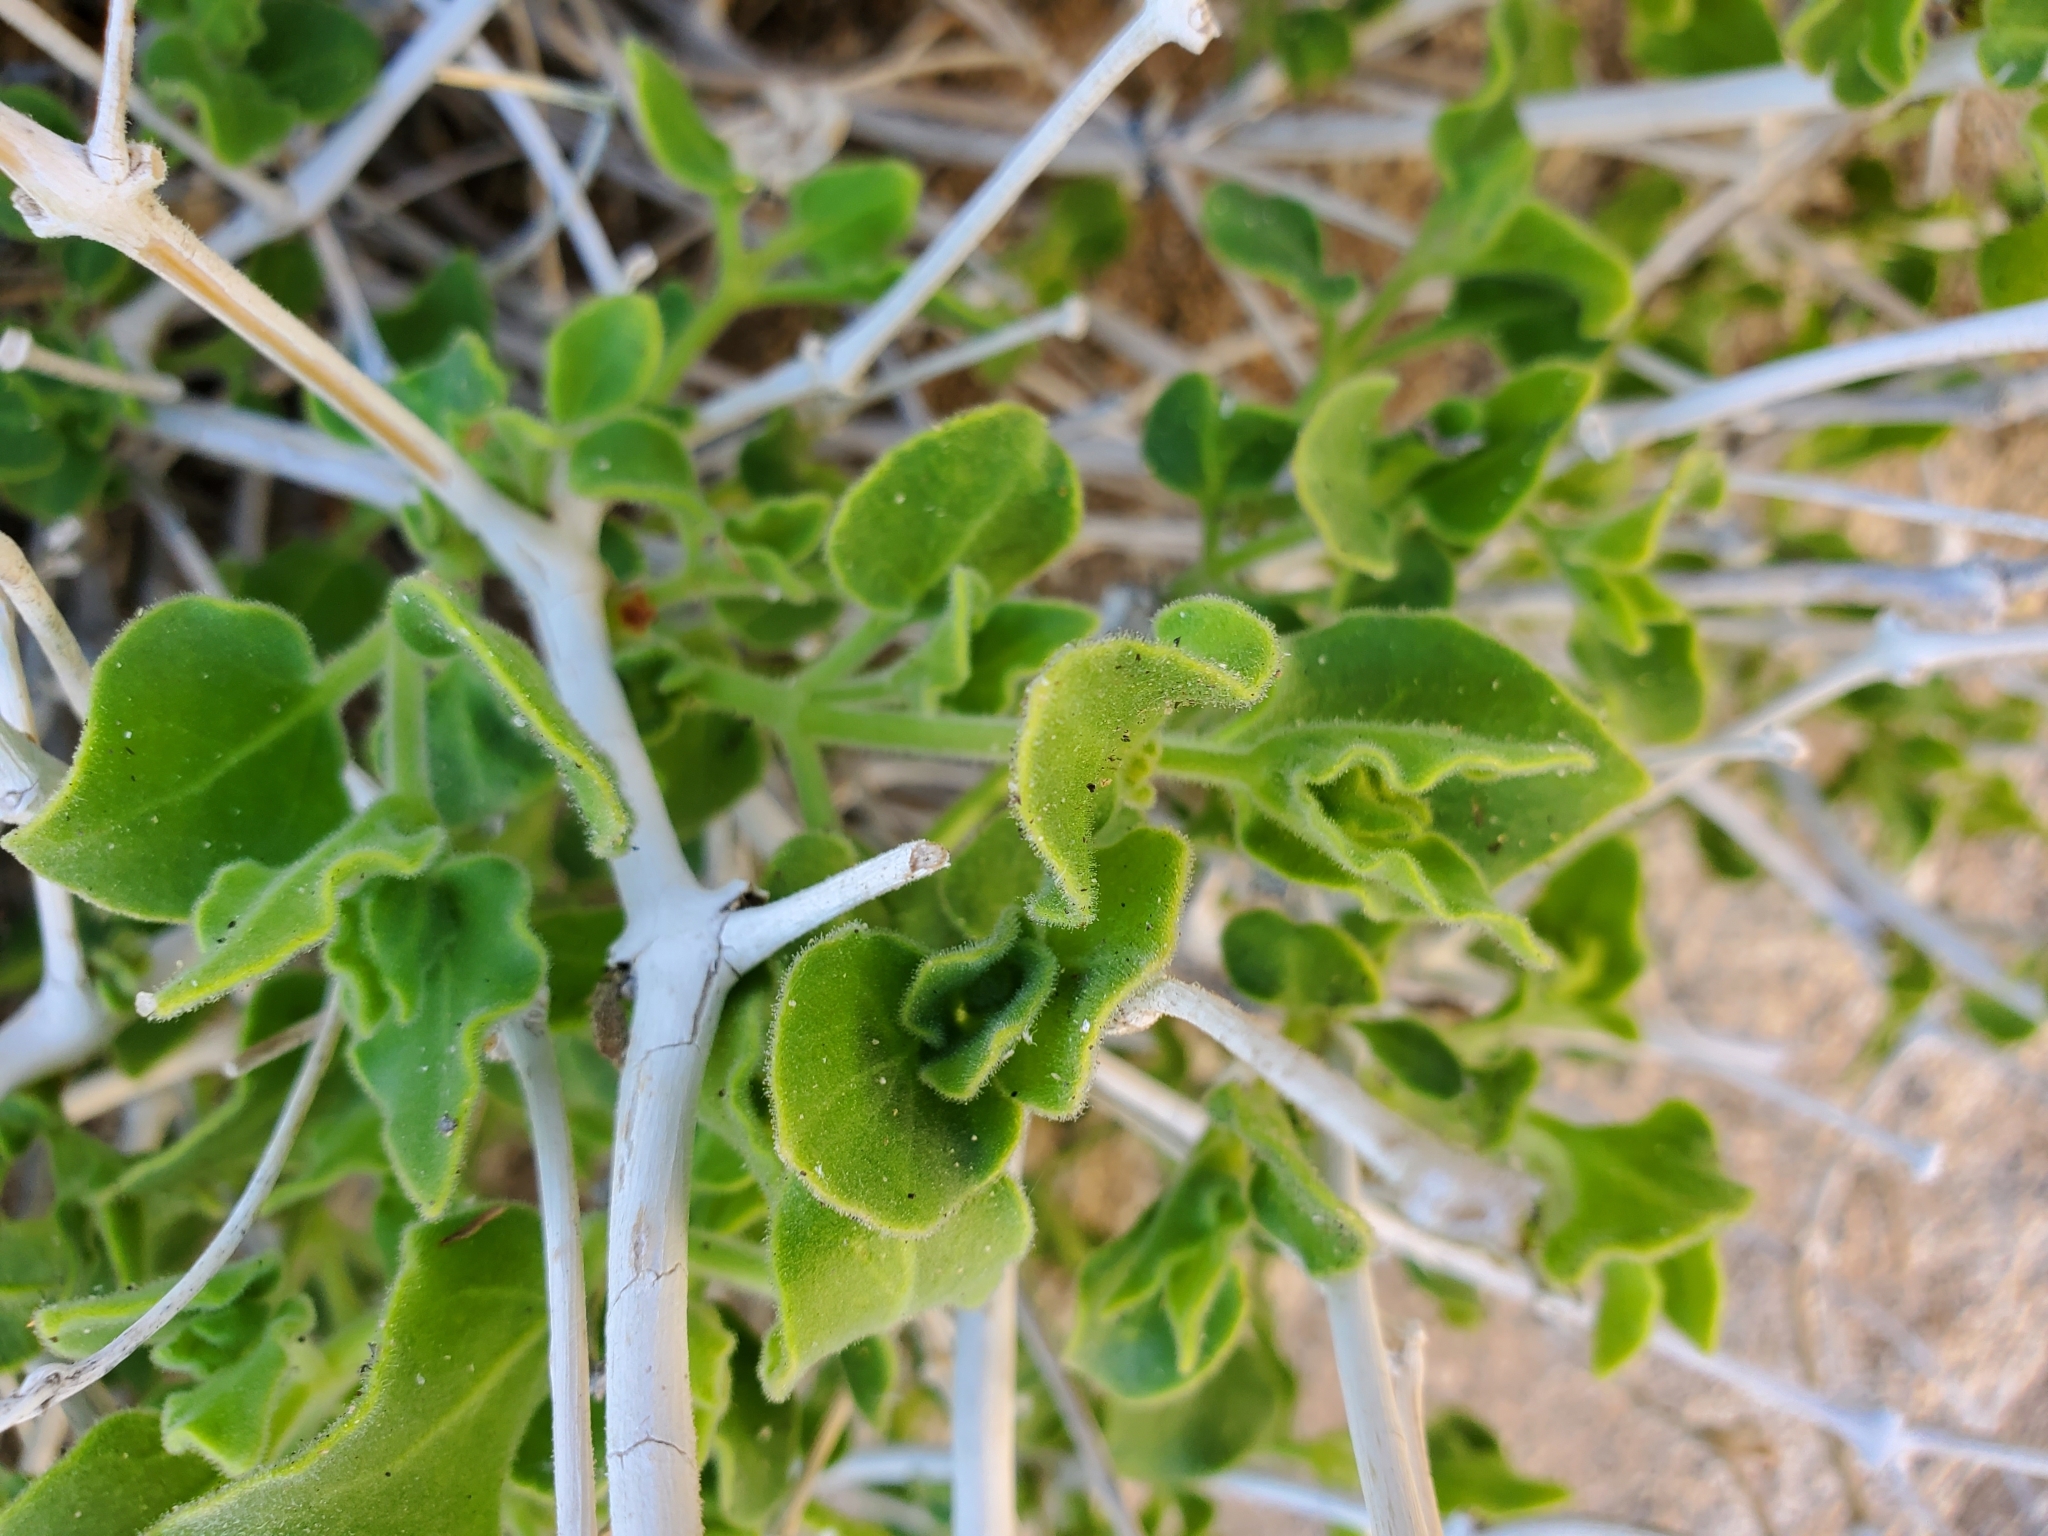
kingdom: Plantae
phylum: Tracheophyta
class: Magnoliopsida
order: Caryophyllales
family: Nyctaginaceae
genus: Mirabilis
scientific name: Mirabilis tenuiloba
